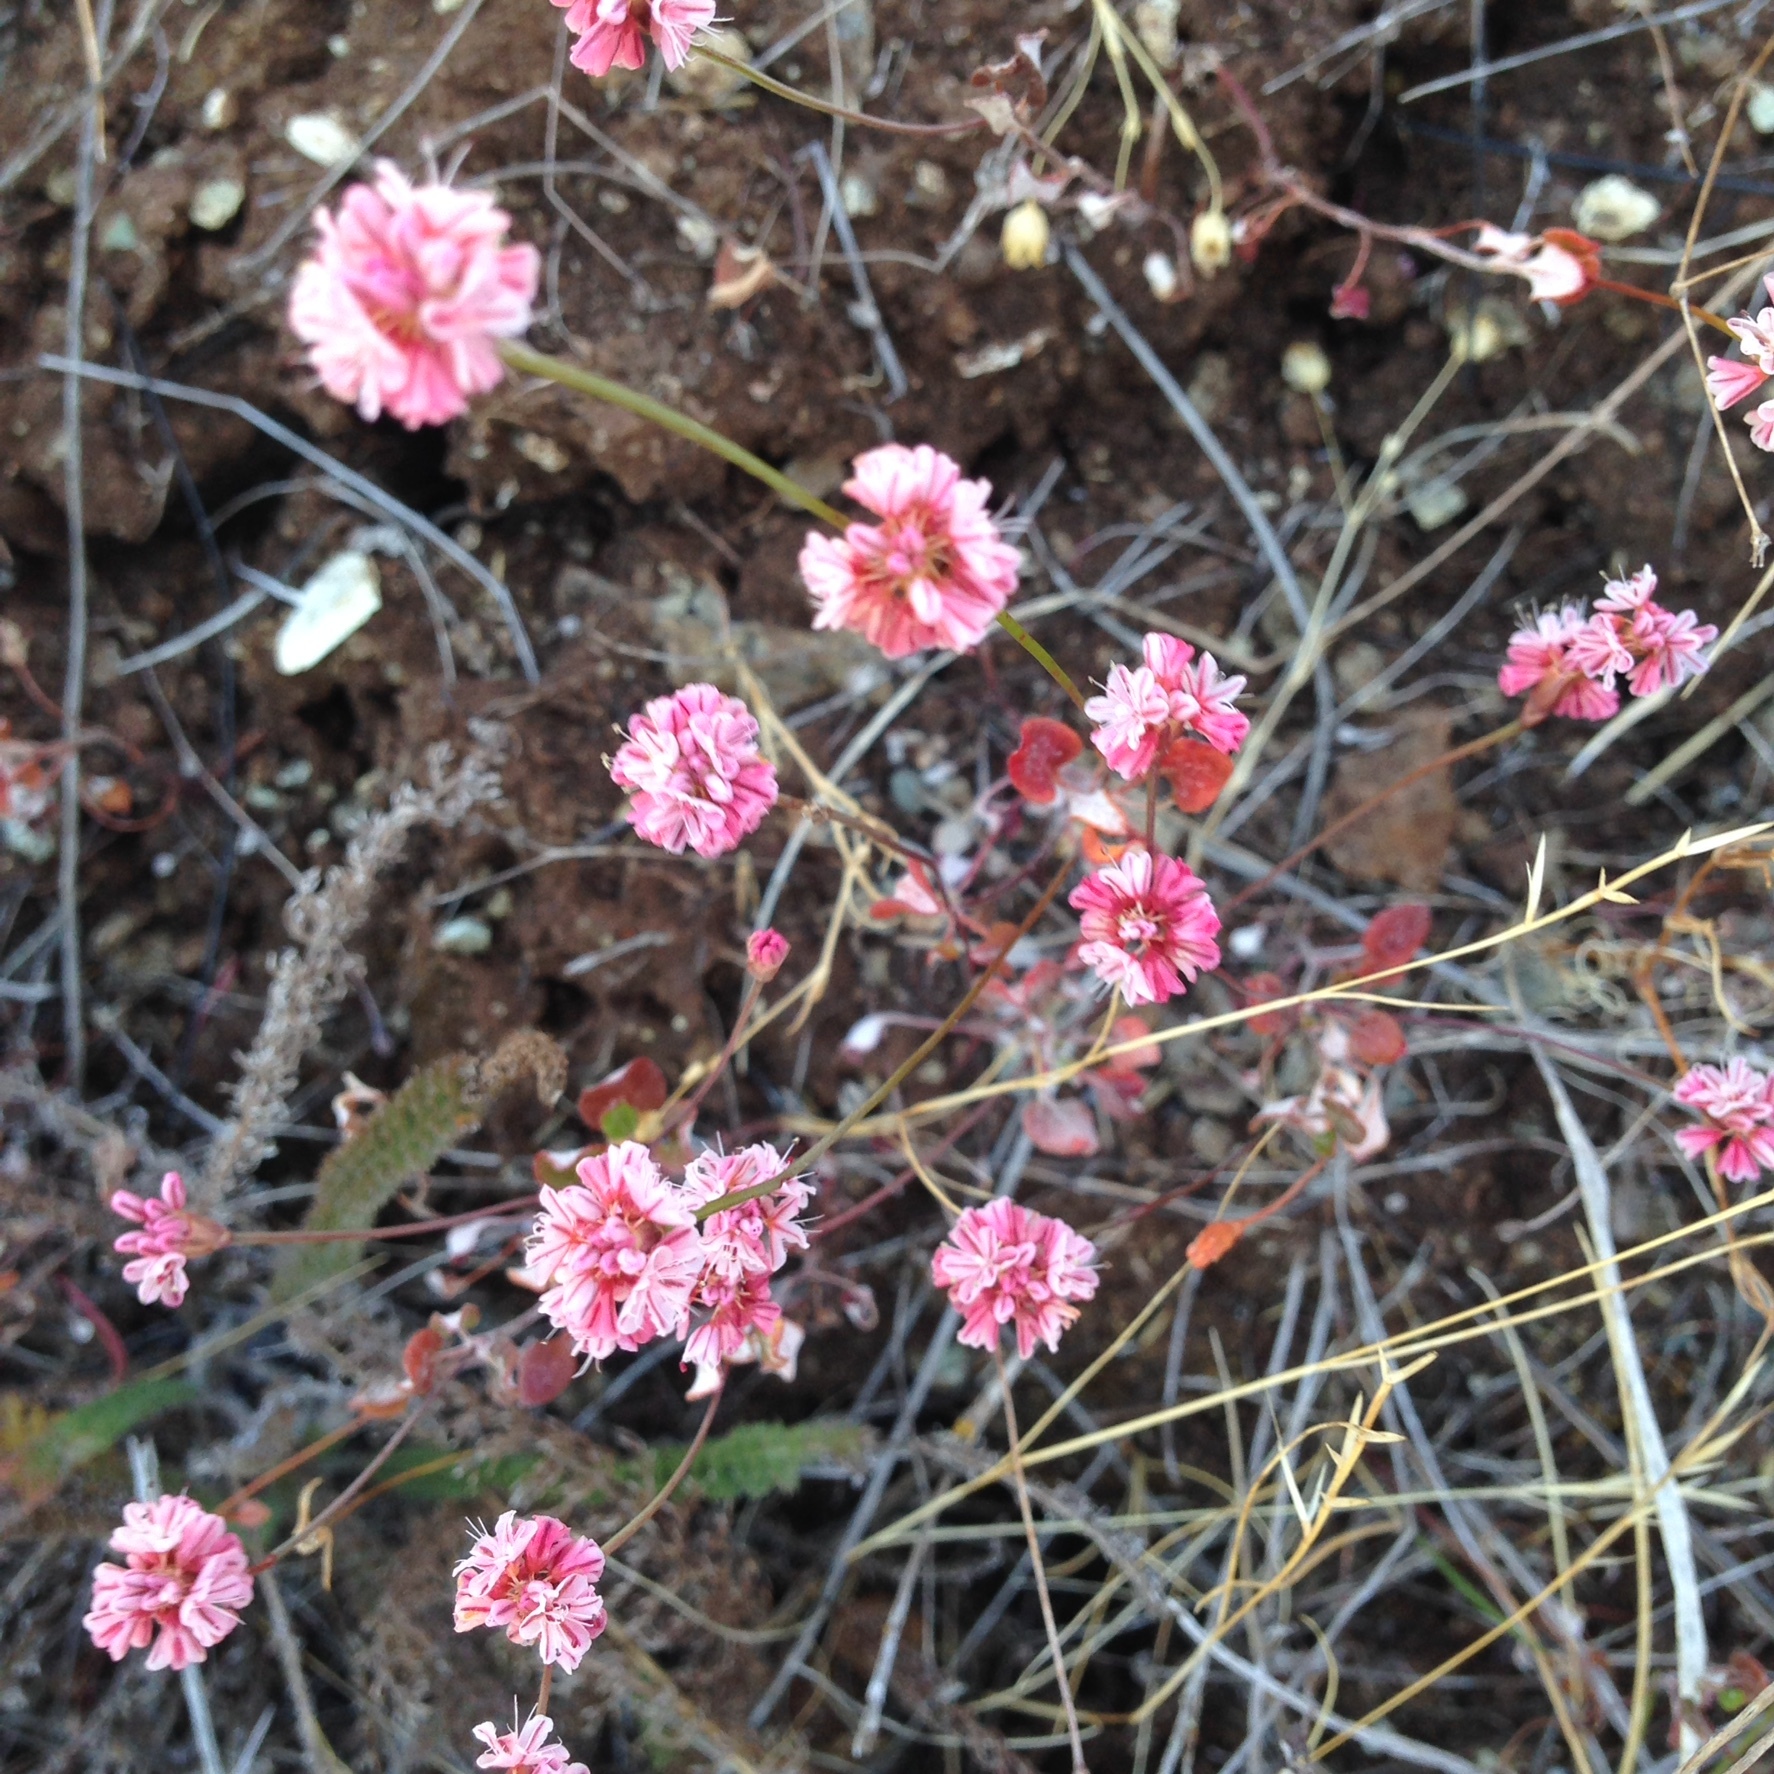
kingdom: Plantae
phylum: Tracheophyta
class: Magnoliopsida
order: Caryophyllales
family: Polygonaceae
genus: Eriogonum
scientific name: Eriogonum luteolum
